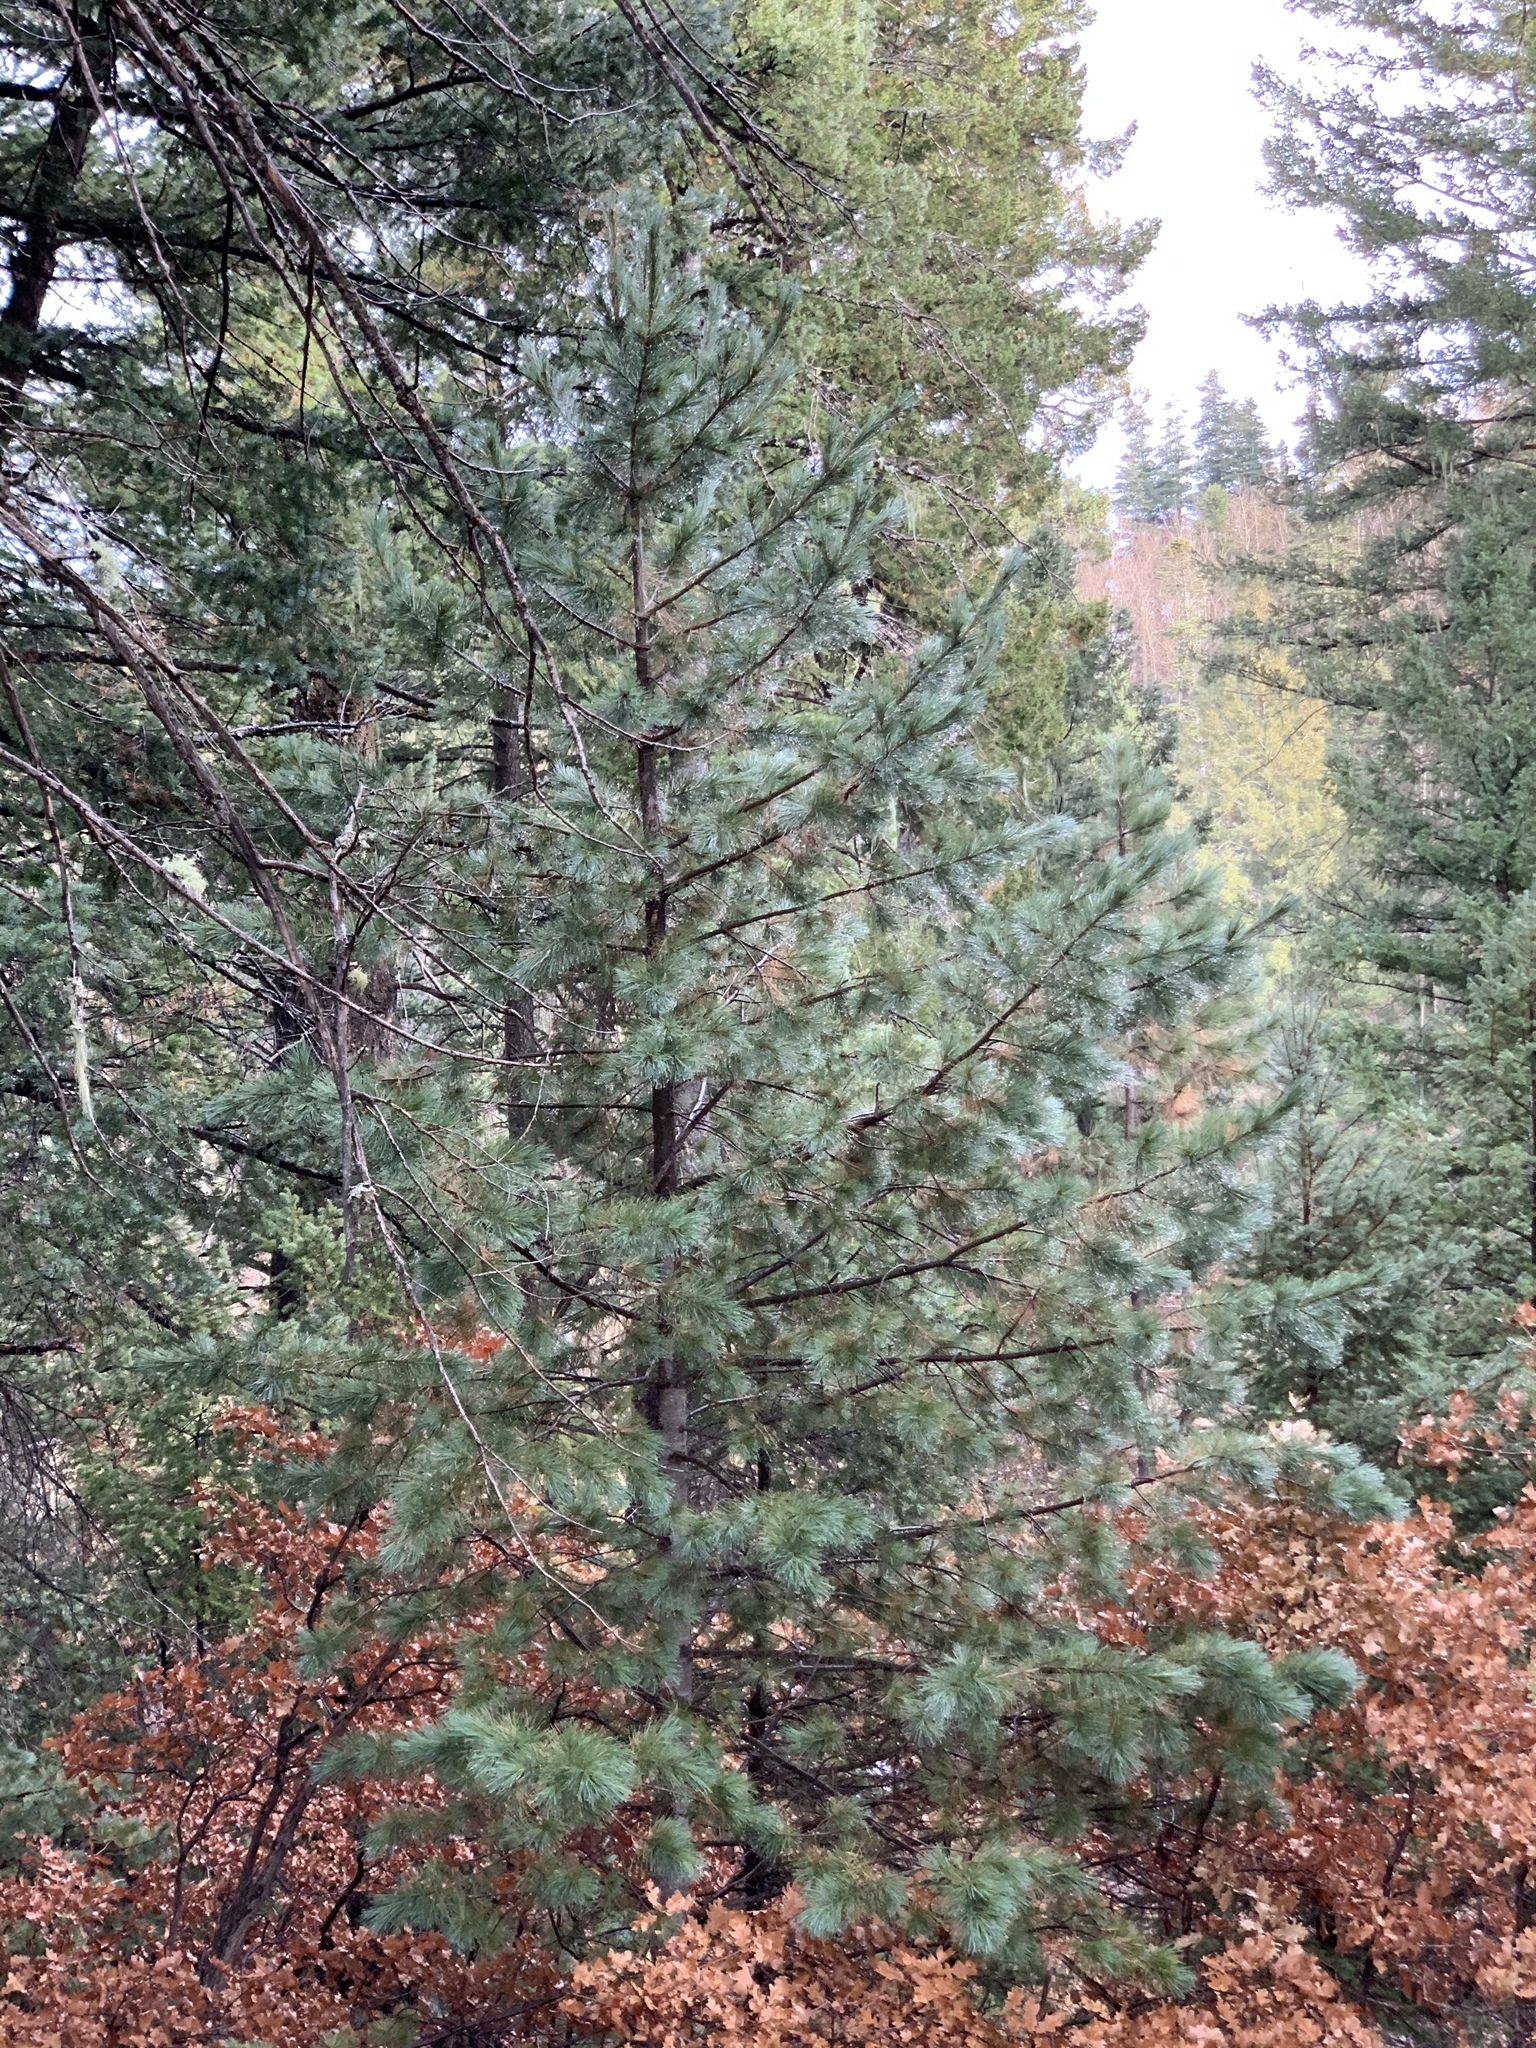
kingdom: Plantae
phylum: Tracheophyta
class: Pinopsida
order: Pinales
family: Pinaceae
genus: Pinus
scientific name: Pinus strobiformis
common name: Southwestern white pine
